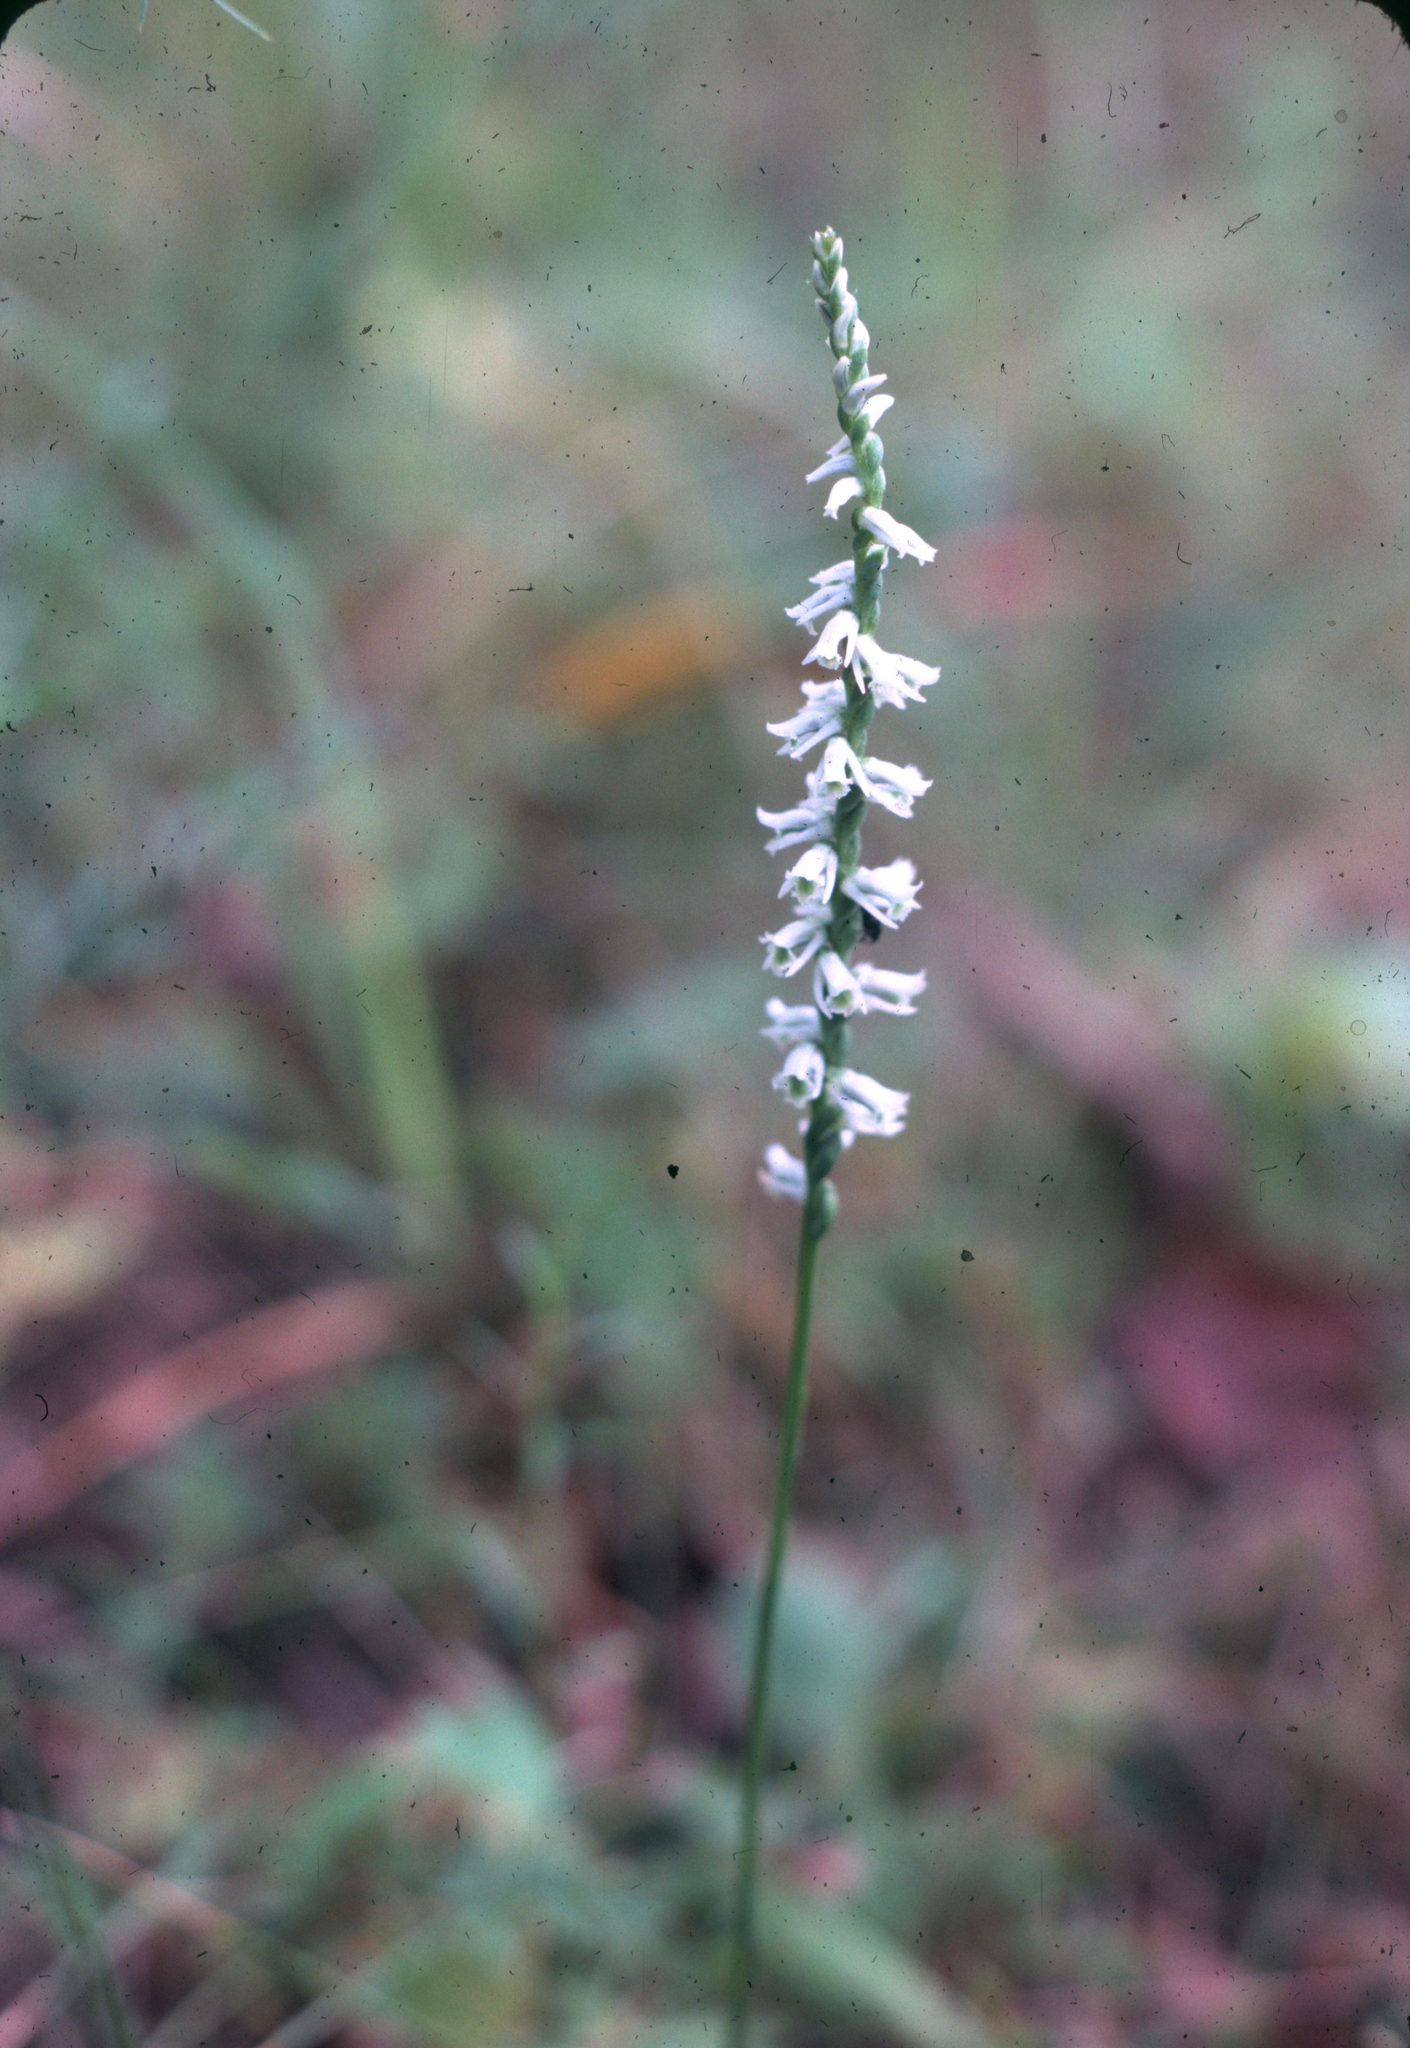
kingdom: Plantae
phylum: Tracheophyta
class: Liliopsida
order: Asparagales
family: Orchidaceae
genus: Spiranthes
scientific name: Spiranthes lacera
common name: Northern slender ladies'-tresses
